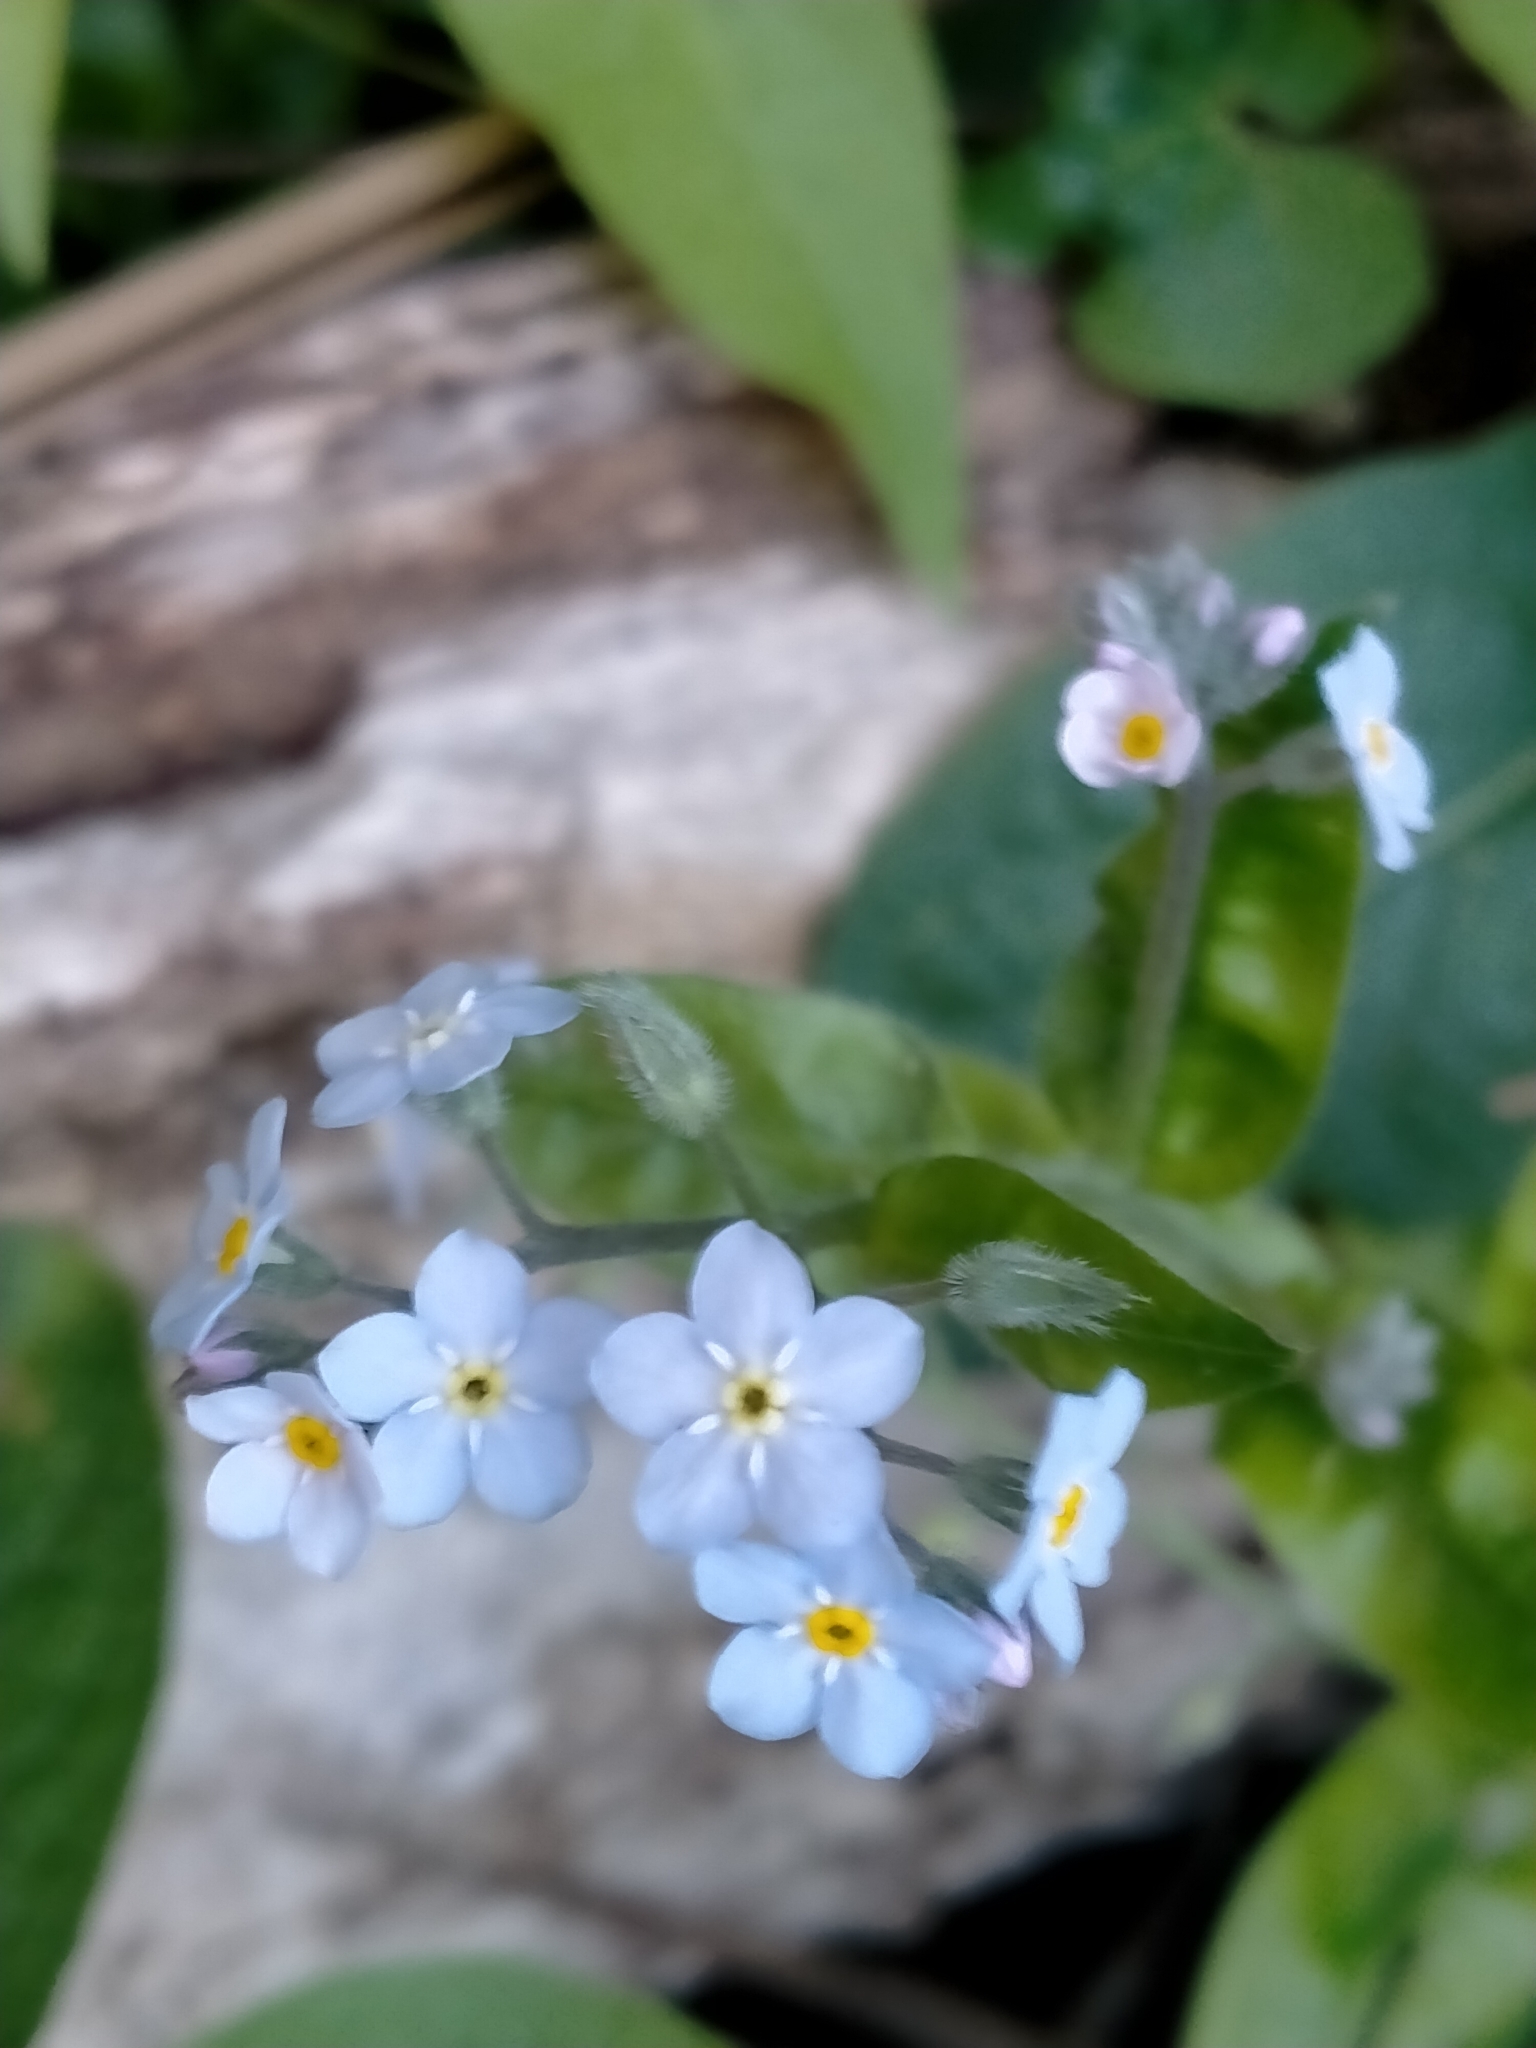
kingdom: Plantae
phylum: Tracheophyta
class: Magnoliopsida
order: Boraginales
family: Boraginaceae
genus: Myosotis
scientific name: Myosotis sylvatica
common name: Wood forget-me-not
